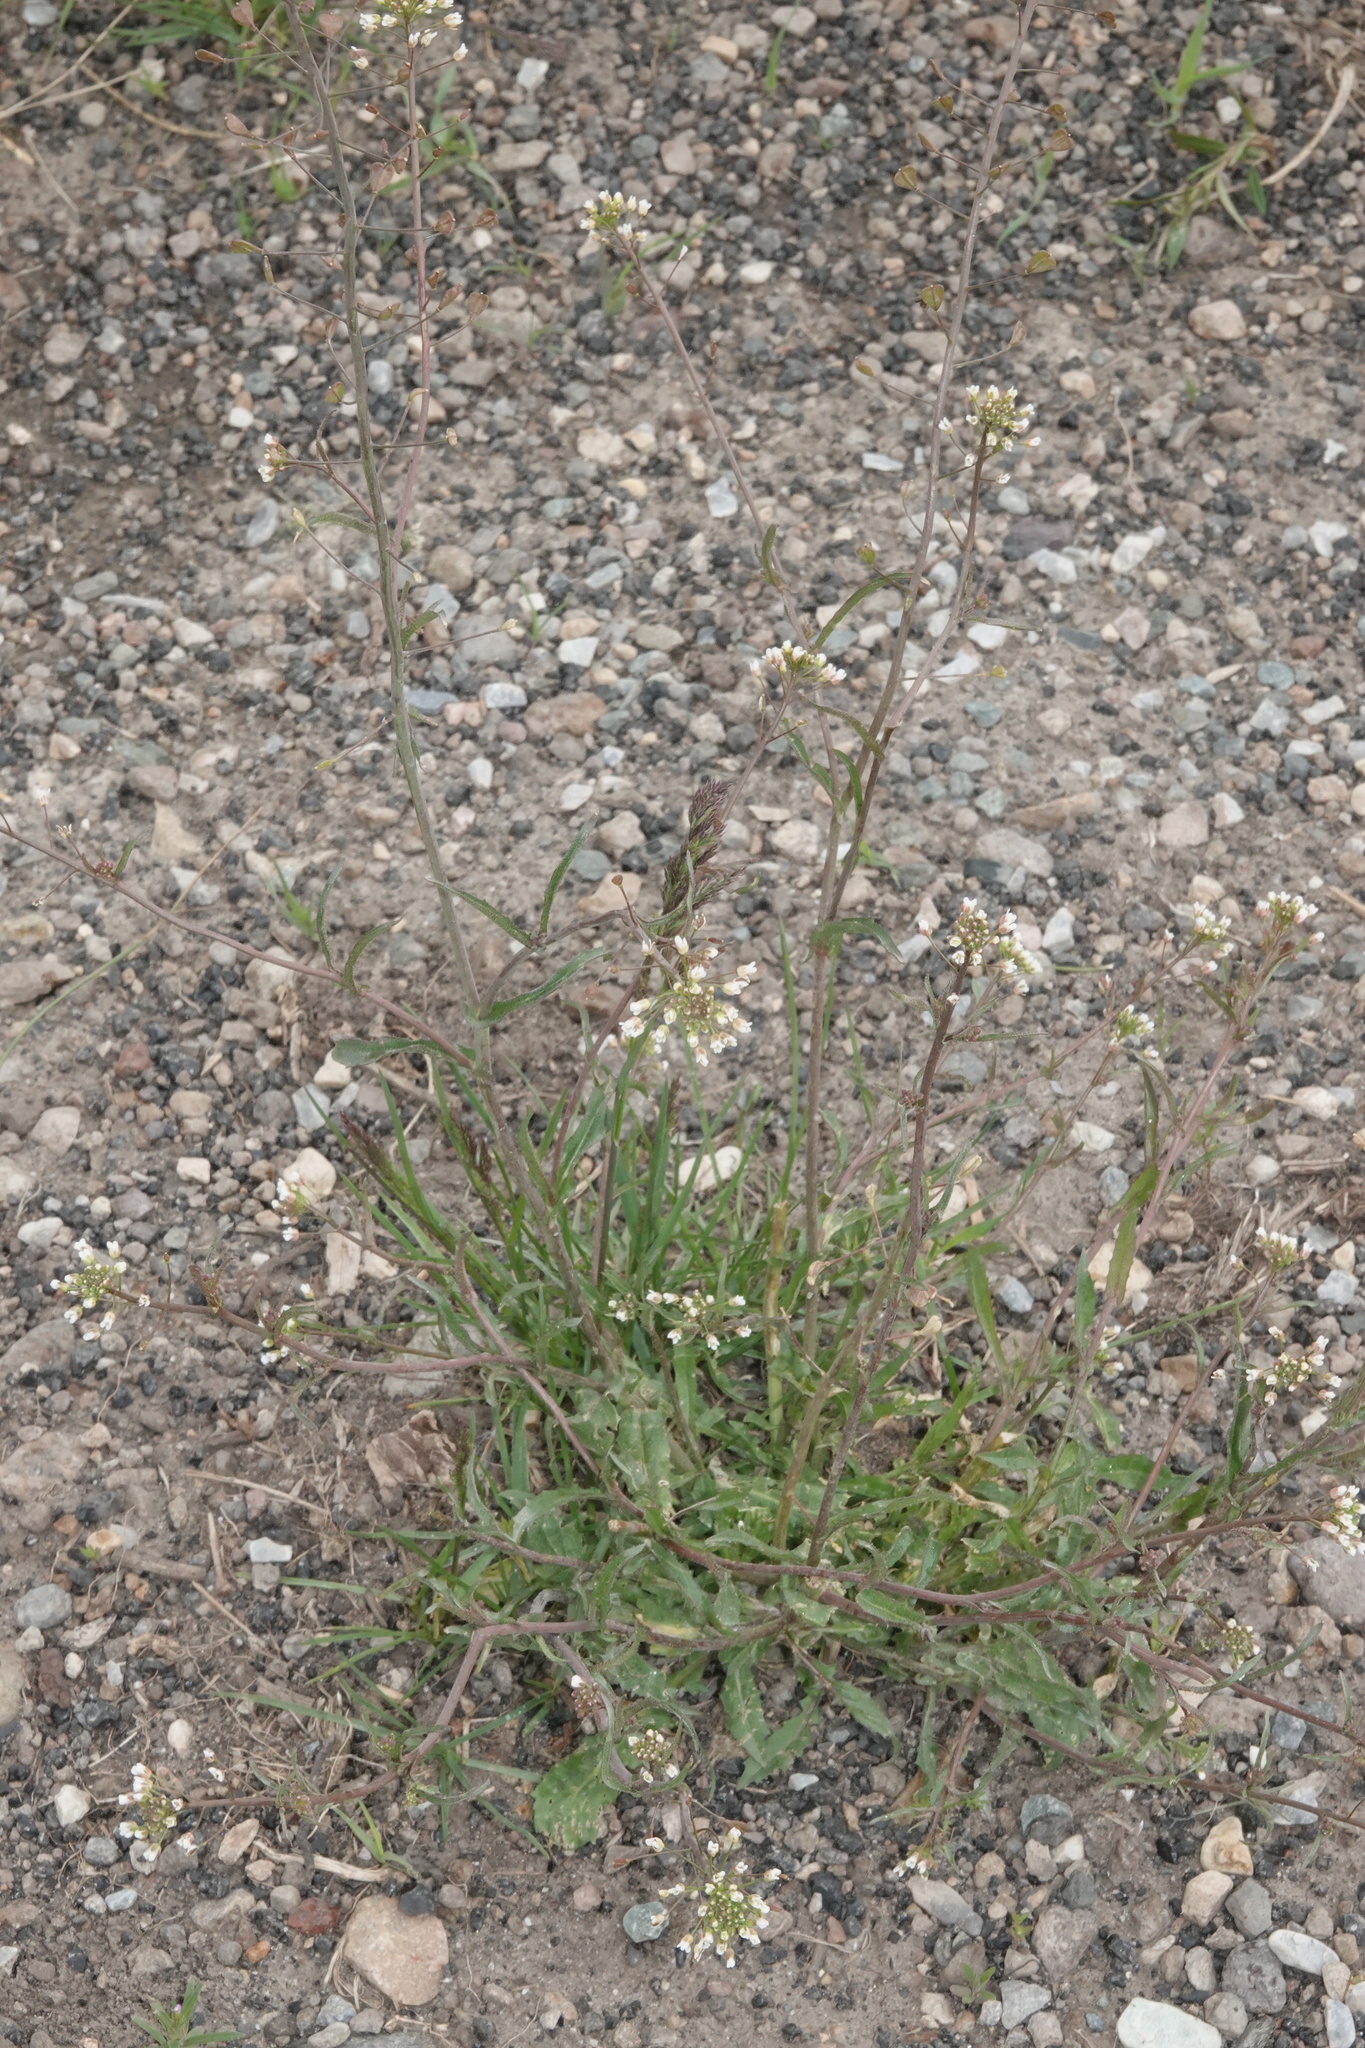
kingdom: Plantae
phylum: Tracheophyta
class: Magnoliopsida
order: Brassicales
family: Brassicaceae
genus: Capsella
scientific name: Capsella bursa-pastoris
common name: Shepherd's purse
